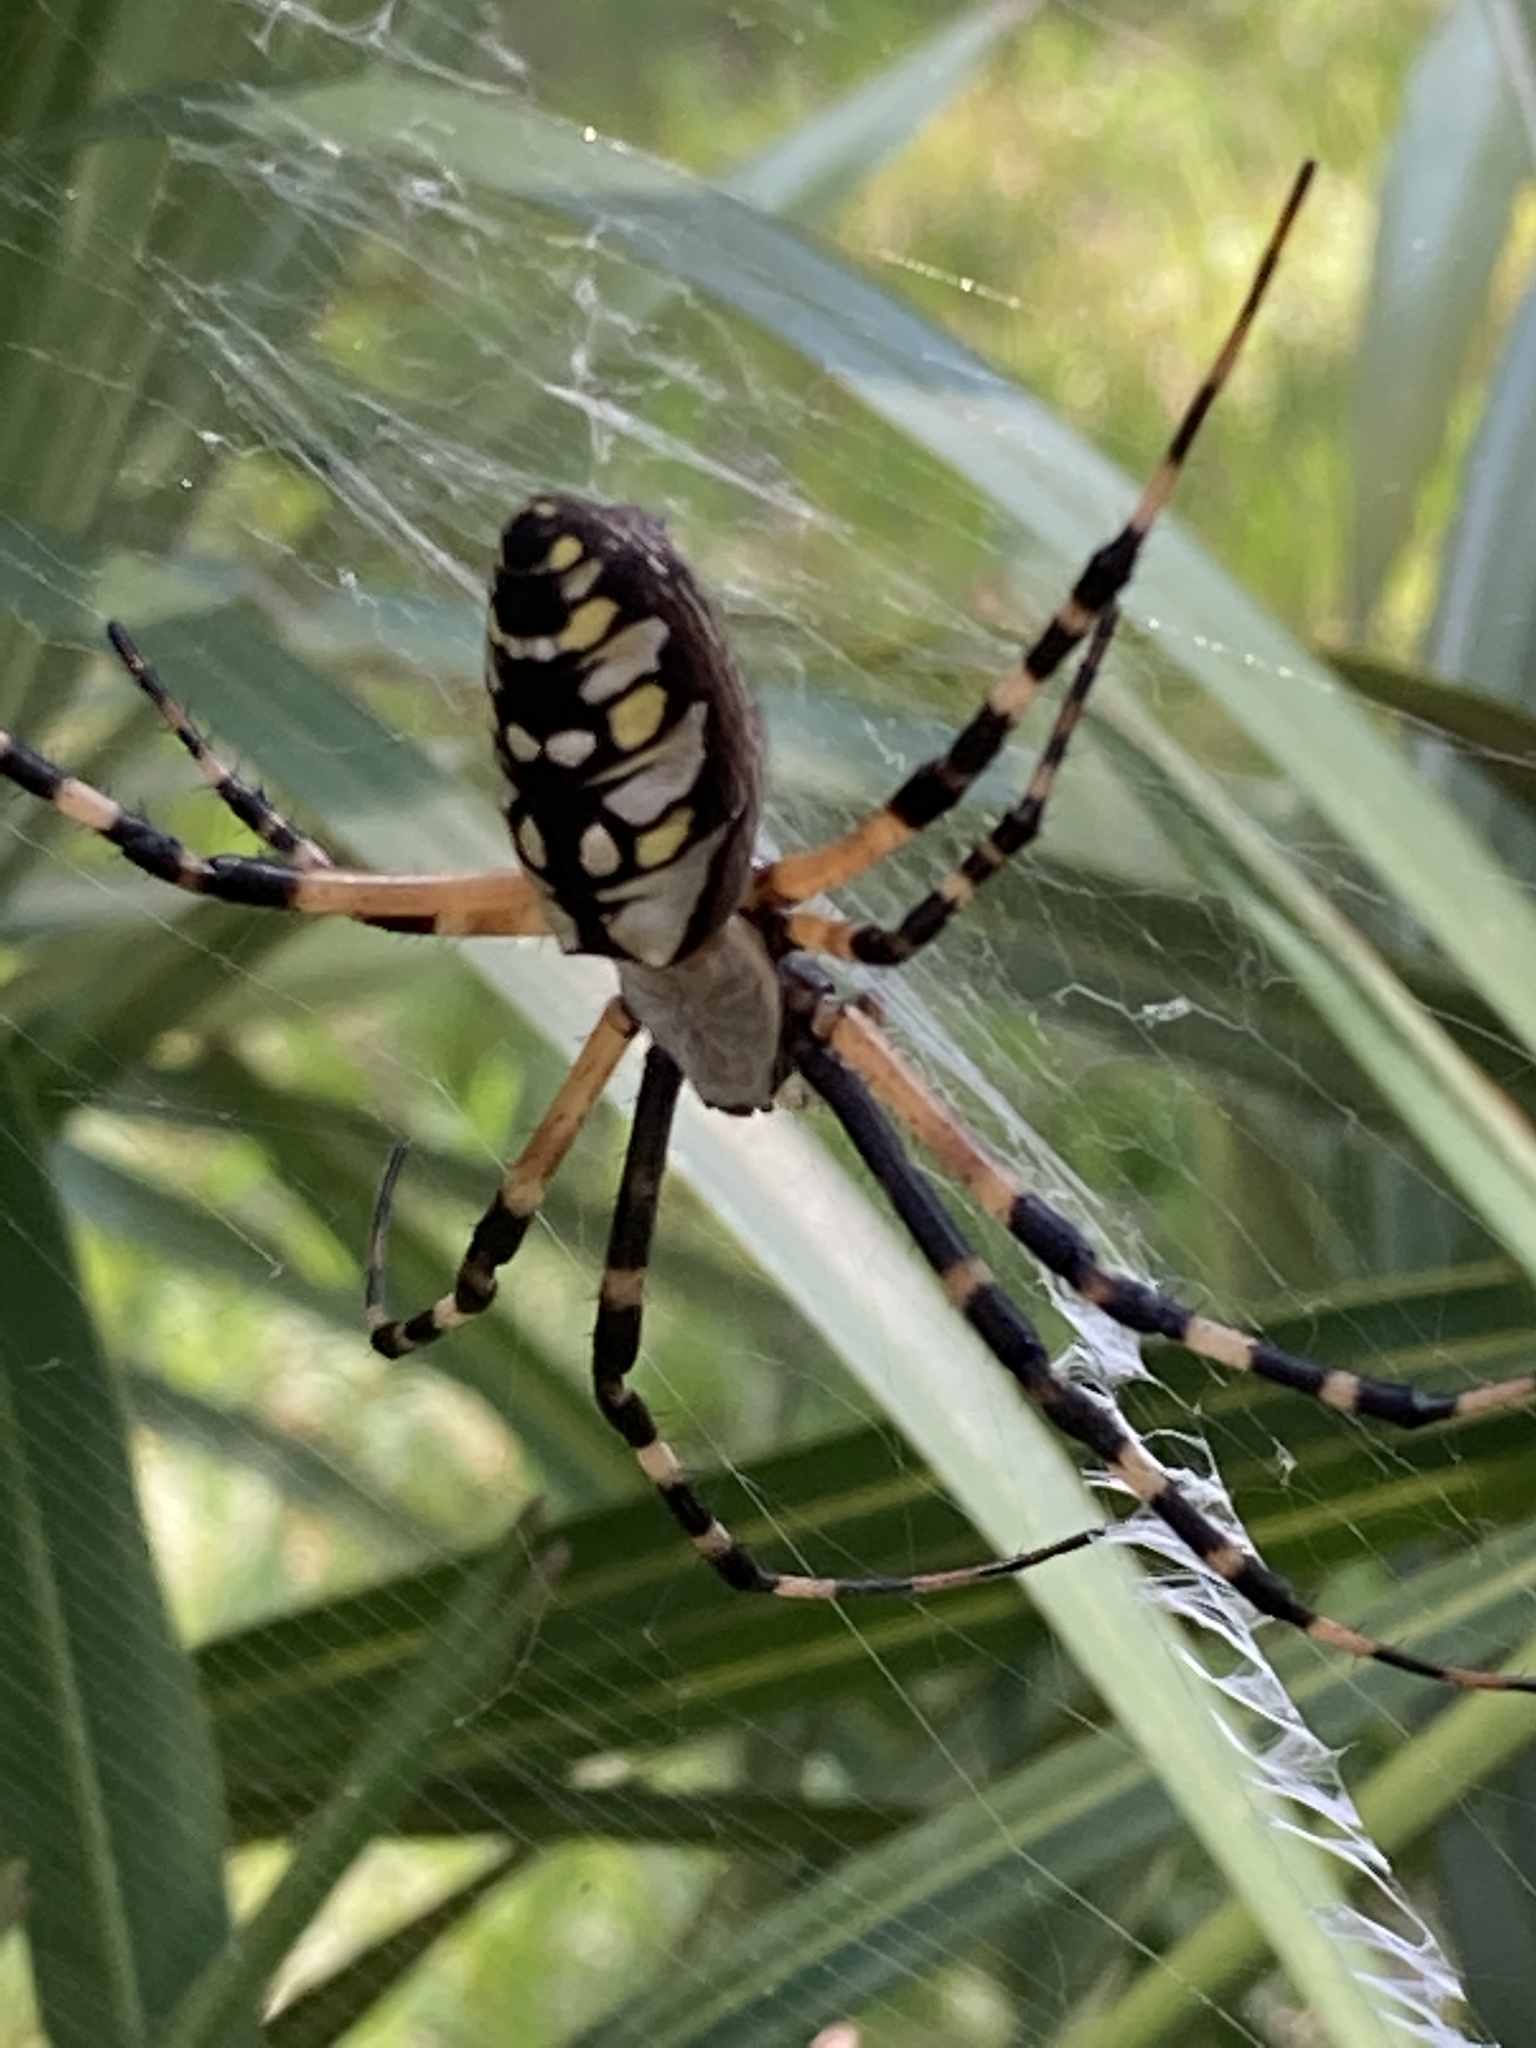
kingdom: Animalia
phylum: Arthropoda
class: Arachnida
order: Araneae
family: Araneidae
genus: Argiope
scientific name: Argiope aurantia
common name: Orb weavers
